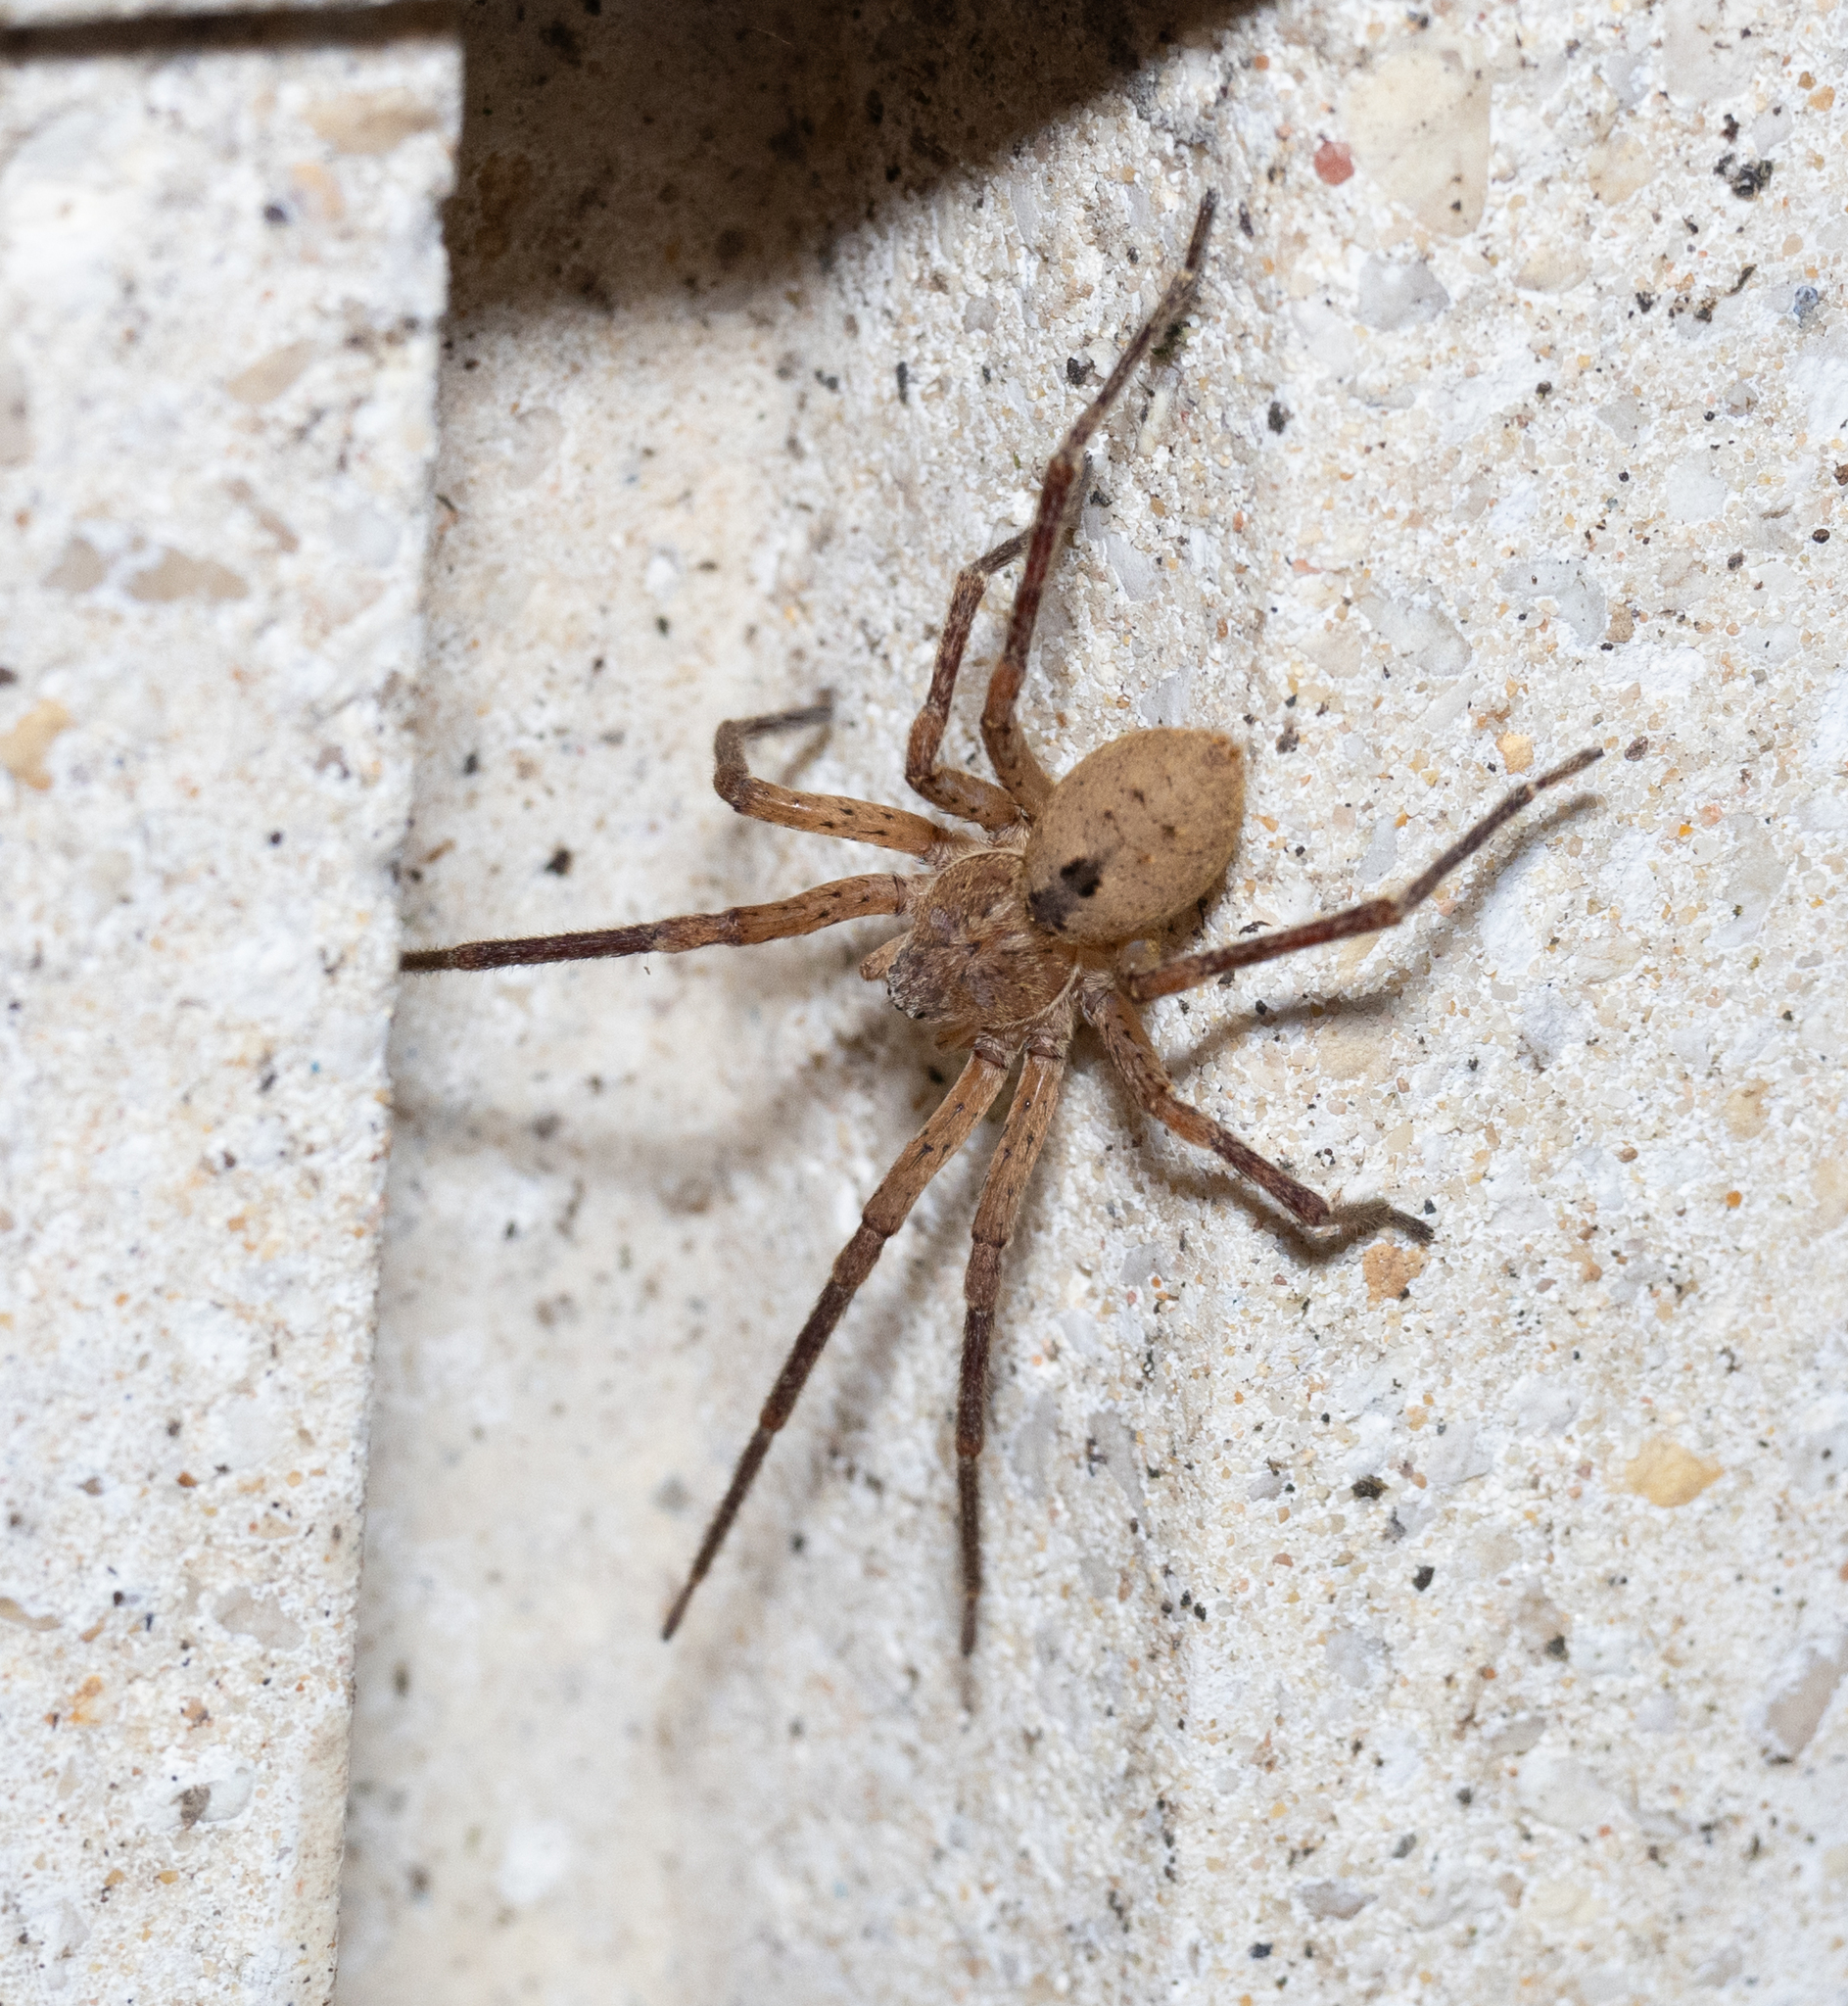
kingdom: Animalia
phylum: Arthropoda
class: Arachnida
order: Araneae
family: Zoropsidae
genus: Zoropsis
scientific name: Zoropsis spinimana
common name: Zoropsid spider
